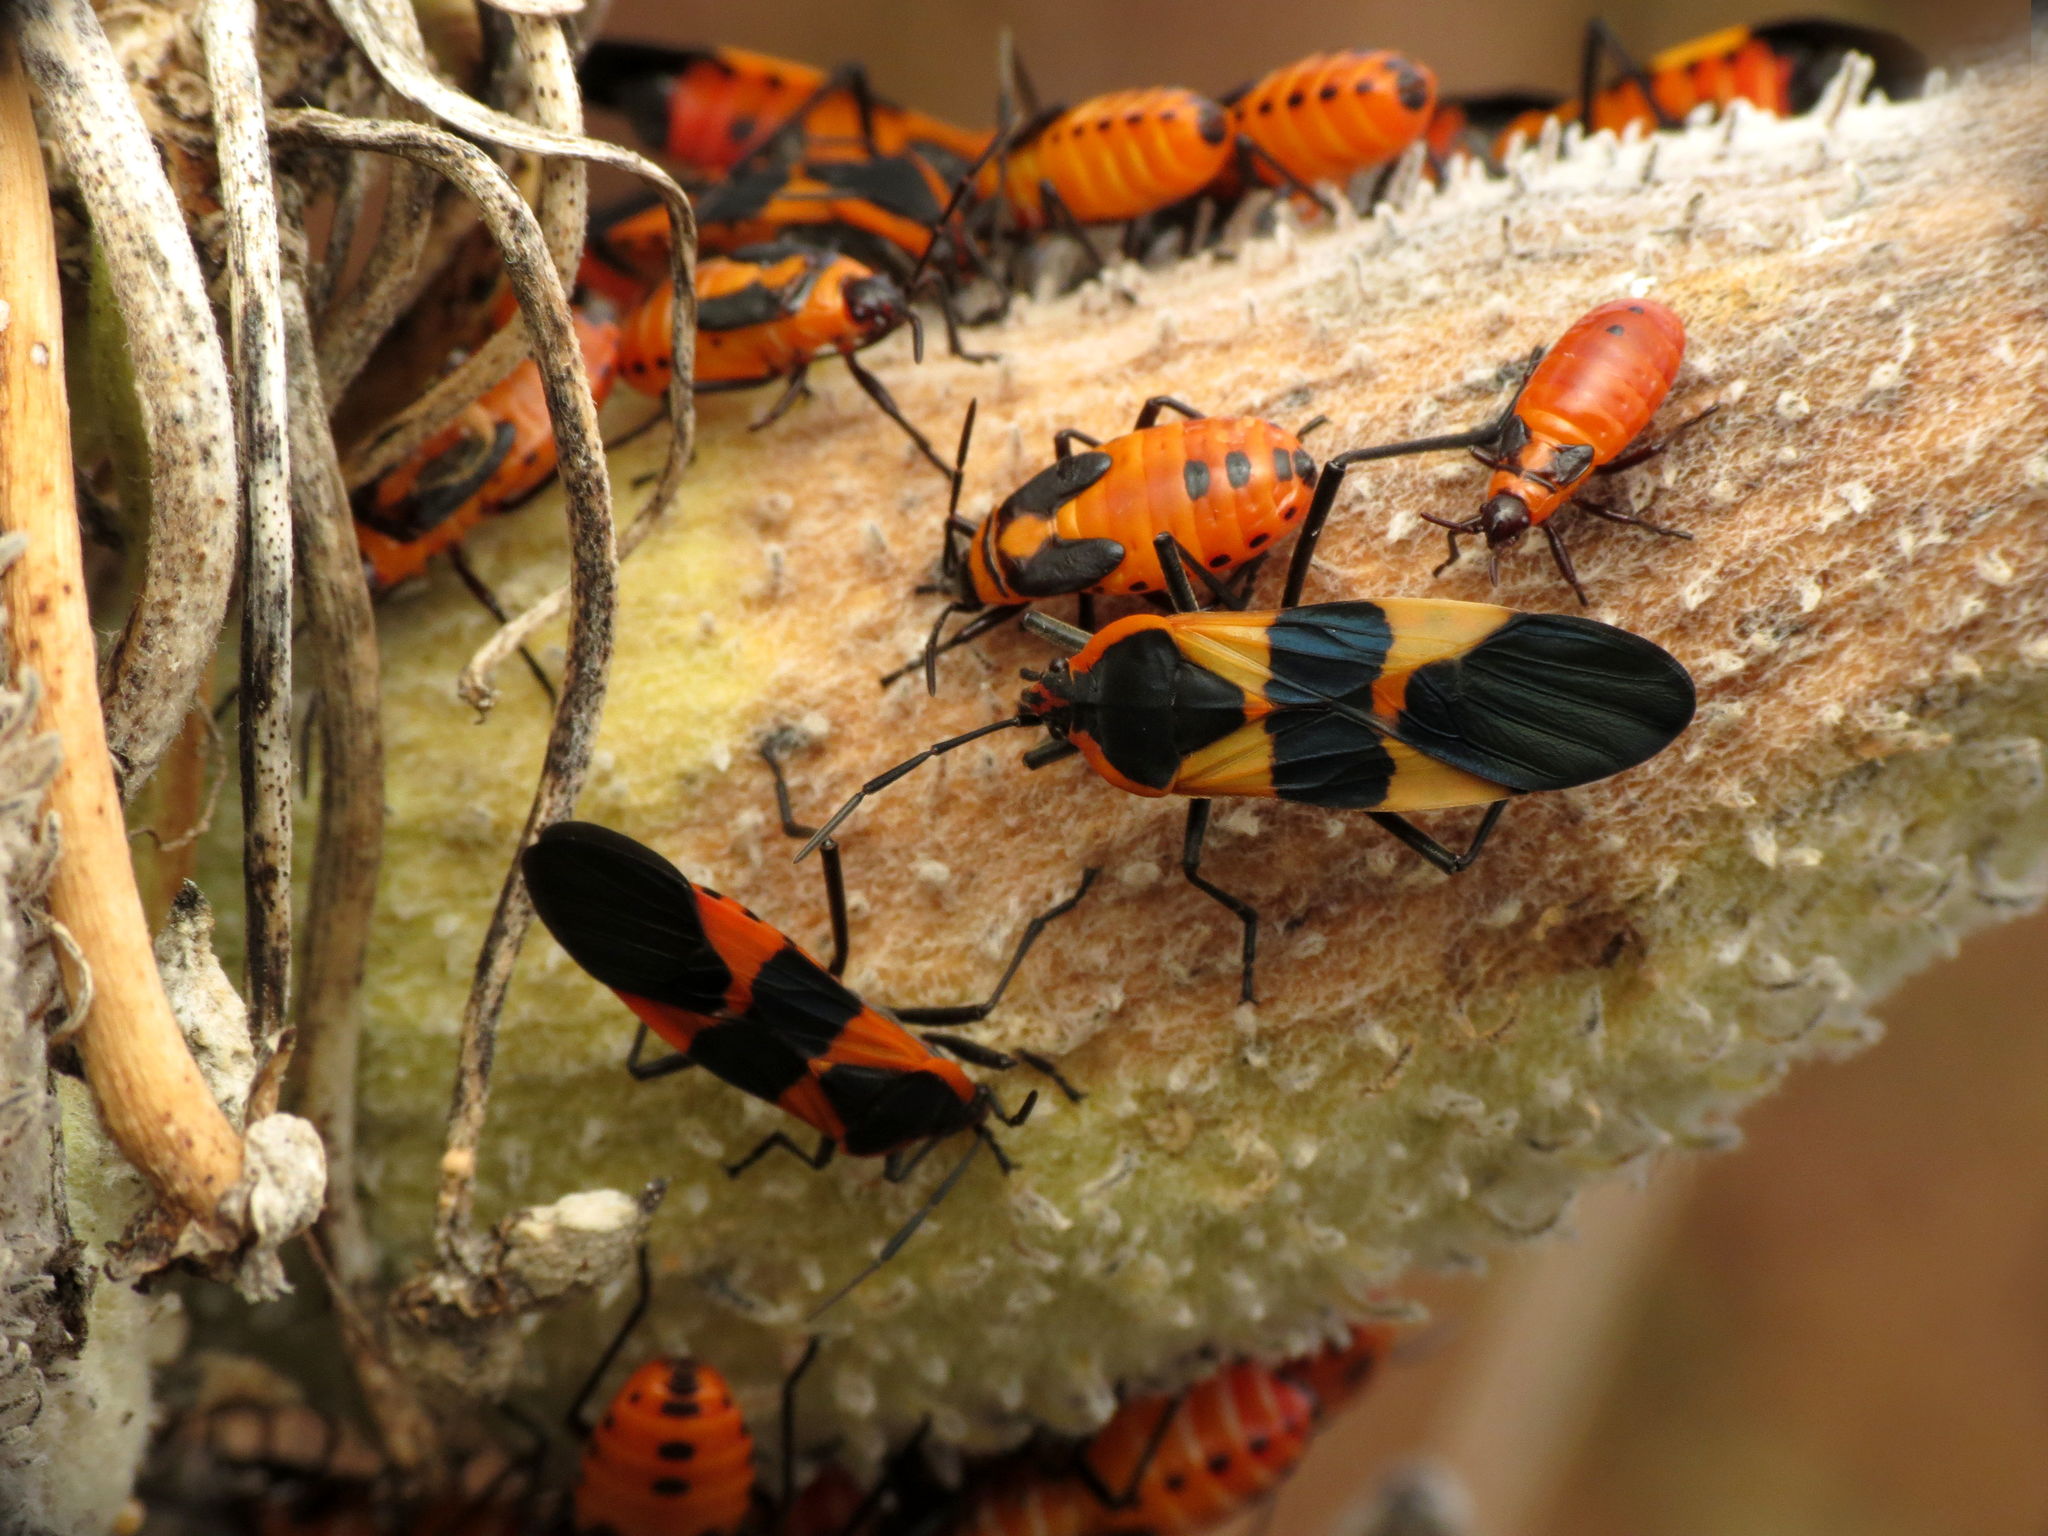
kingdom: Animalia
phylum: Arthropoda
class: Insecta
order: Hemiptera
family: Lygaeidae
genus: Oncopeltus
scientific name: Oncopeltus fasciatus
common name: Large milkweed bug
